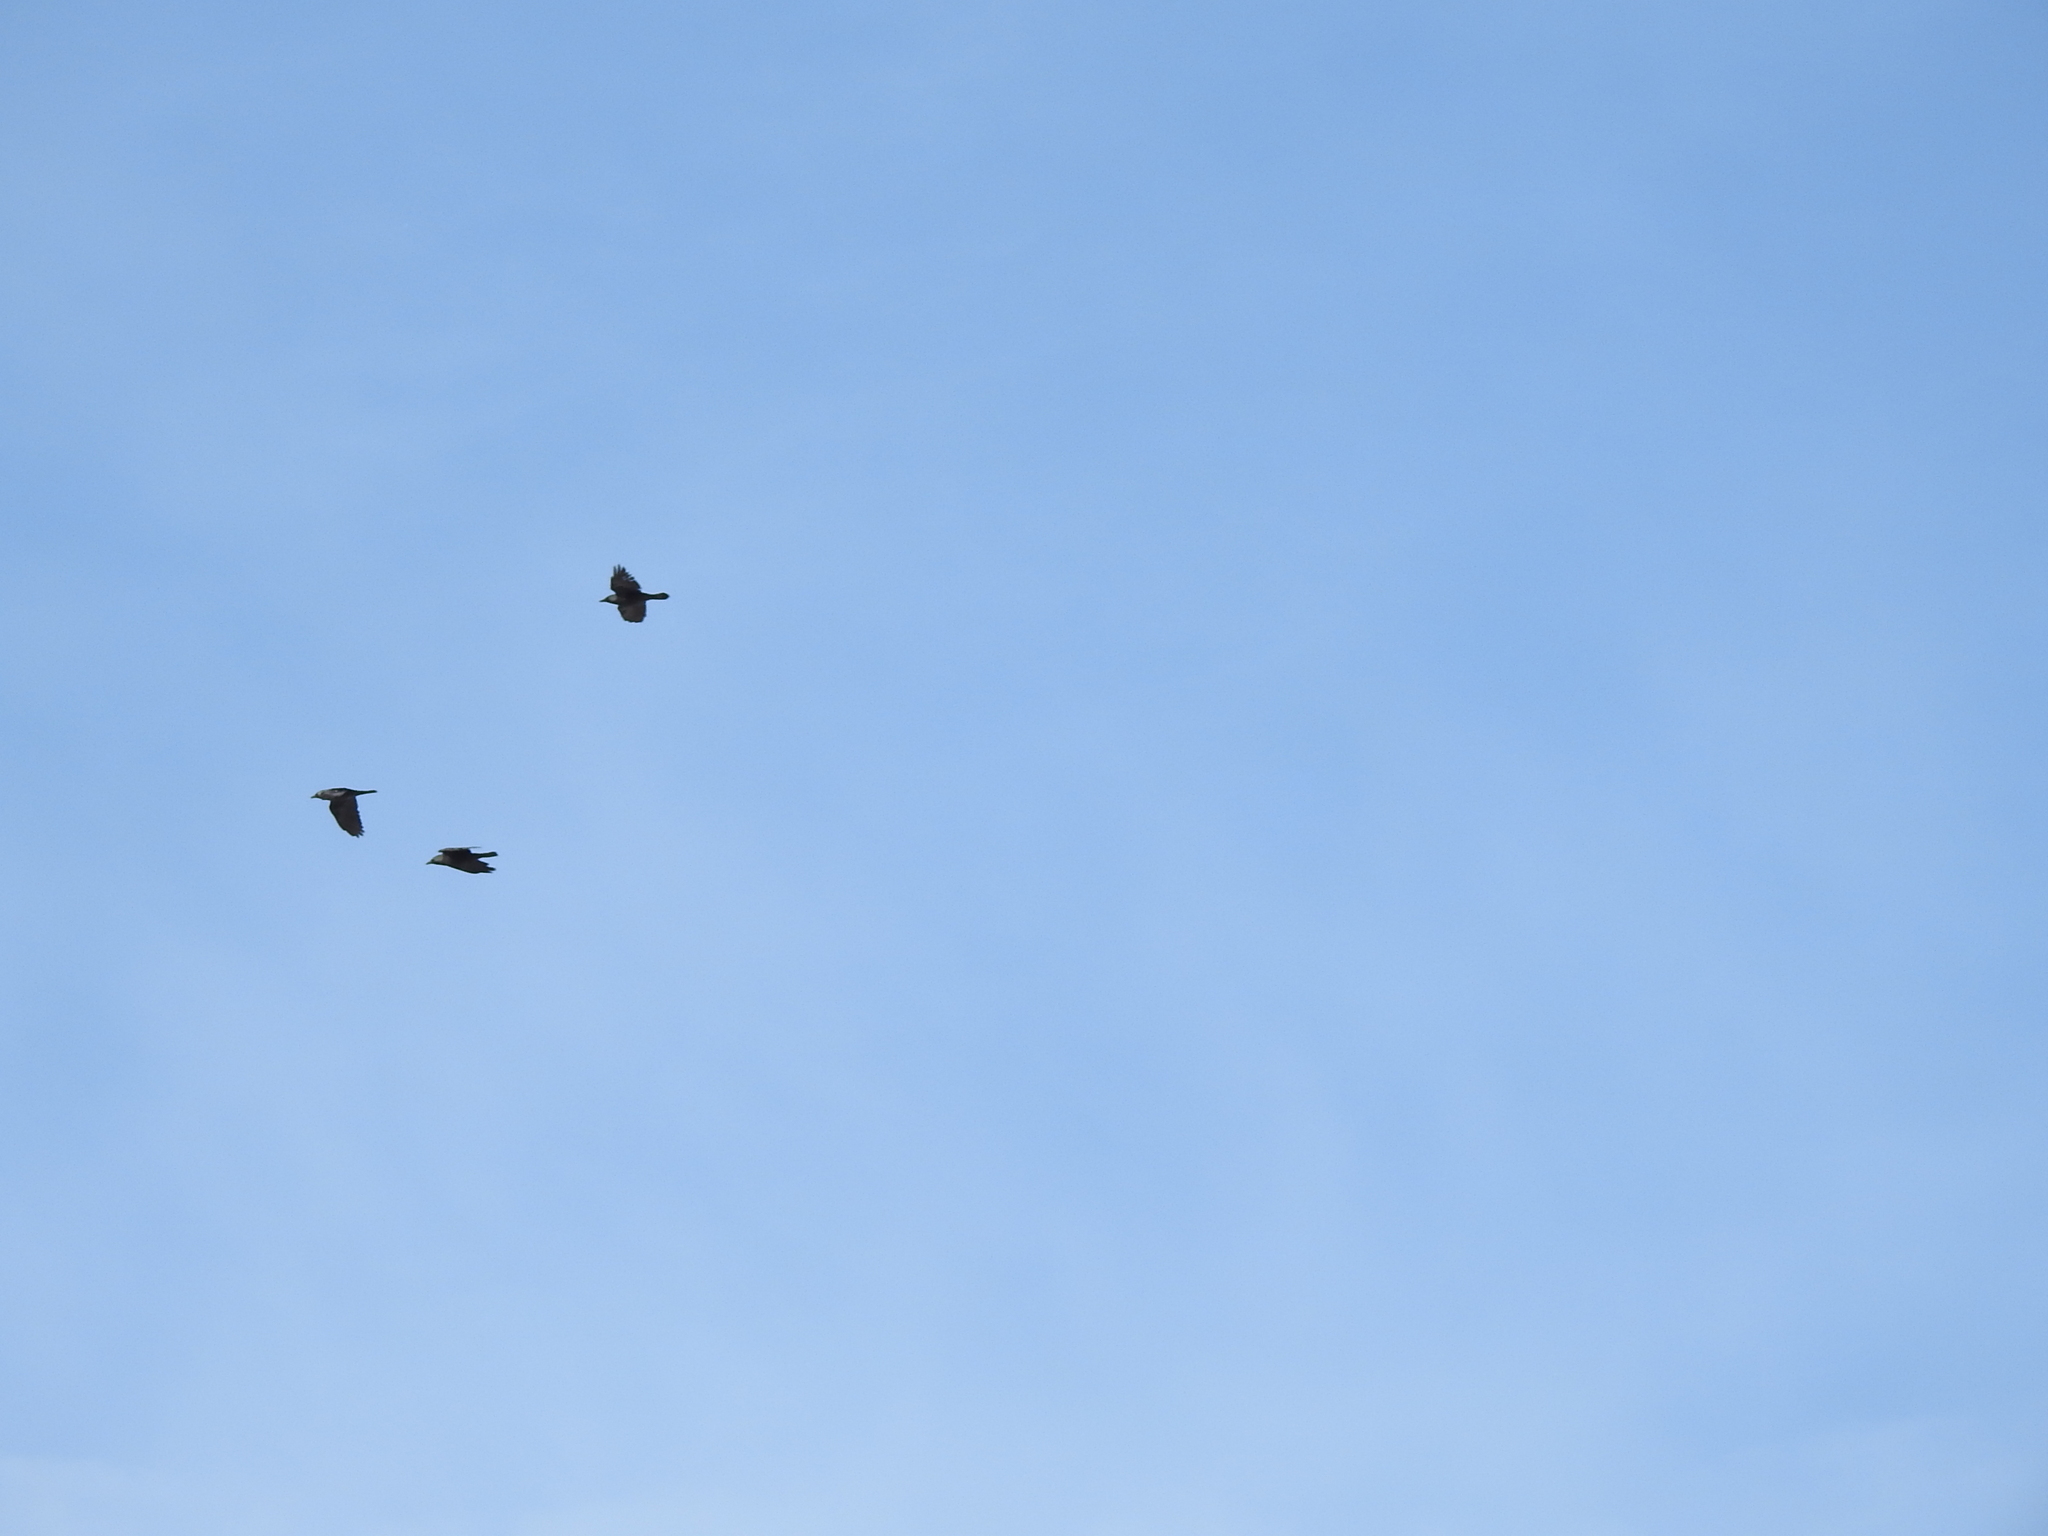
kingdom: Animalia
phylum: Chordata
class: Aves
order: Passeriformes
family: Corvidae
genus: Coloeus
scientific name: Coloeus monedula
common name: Western jackdaw
